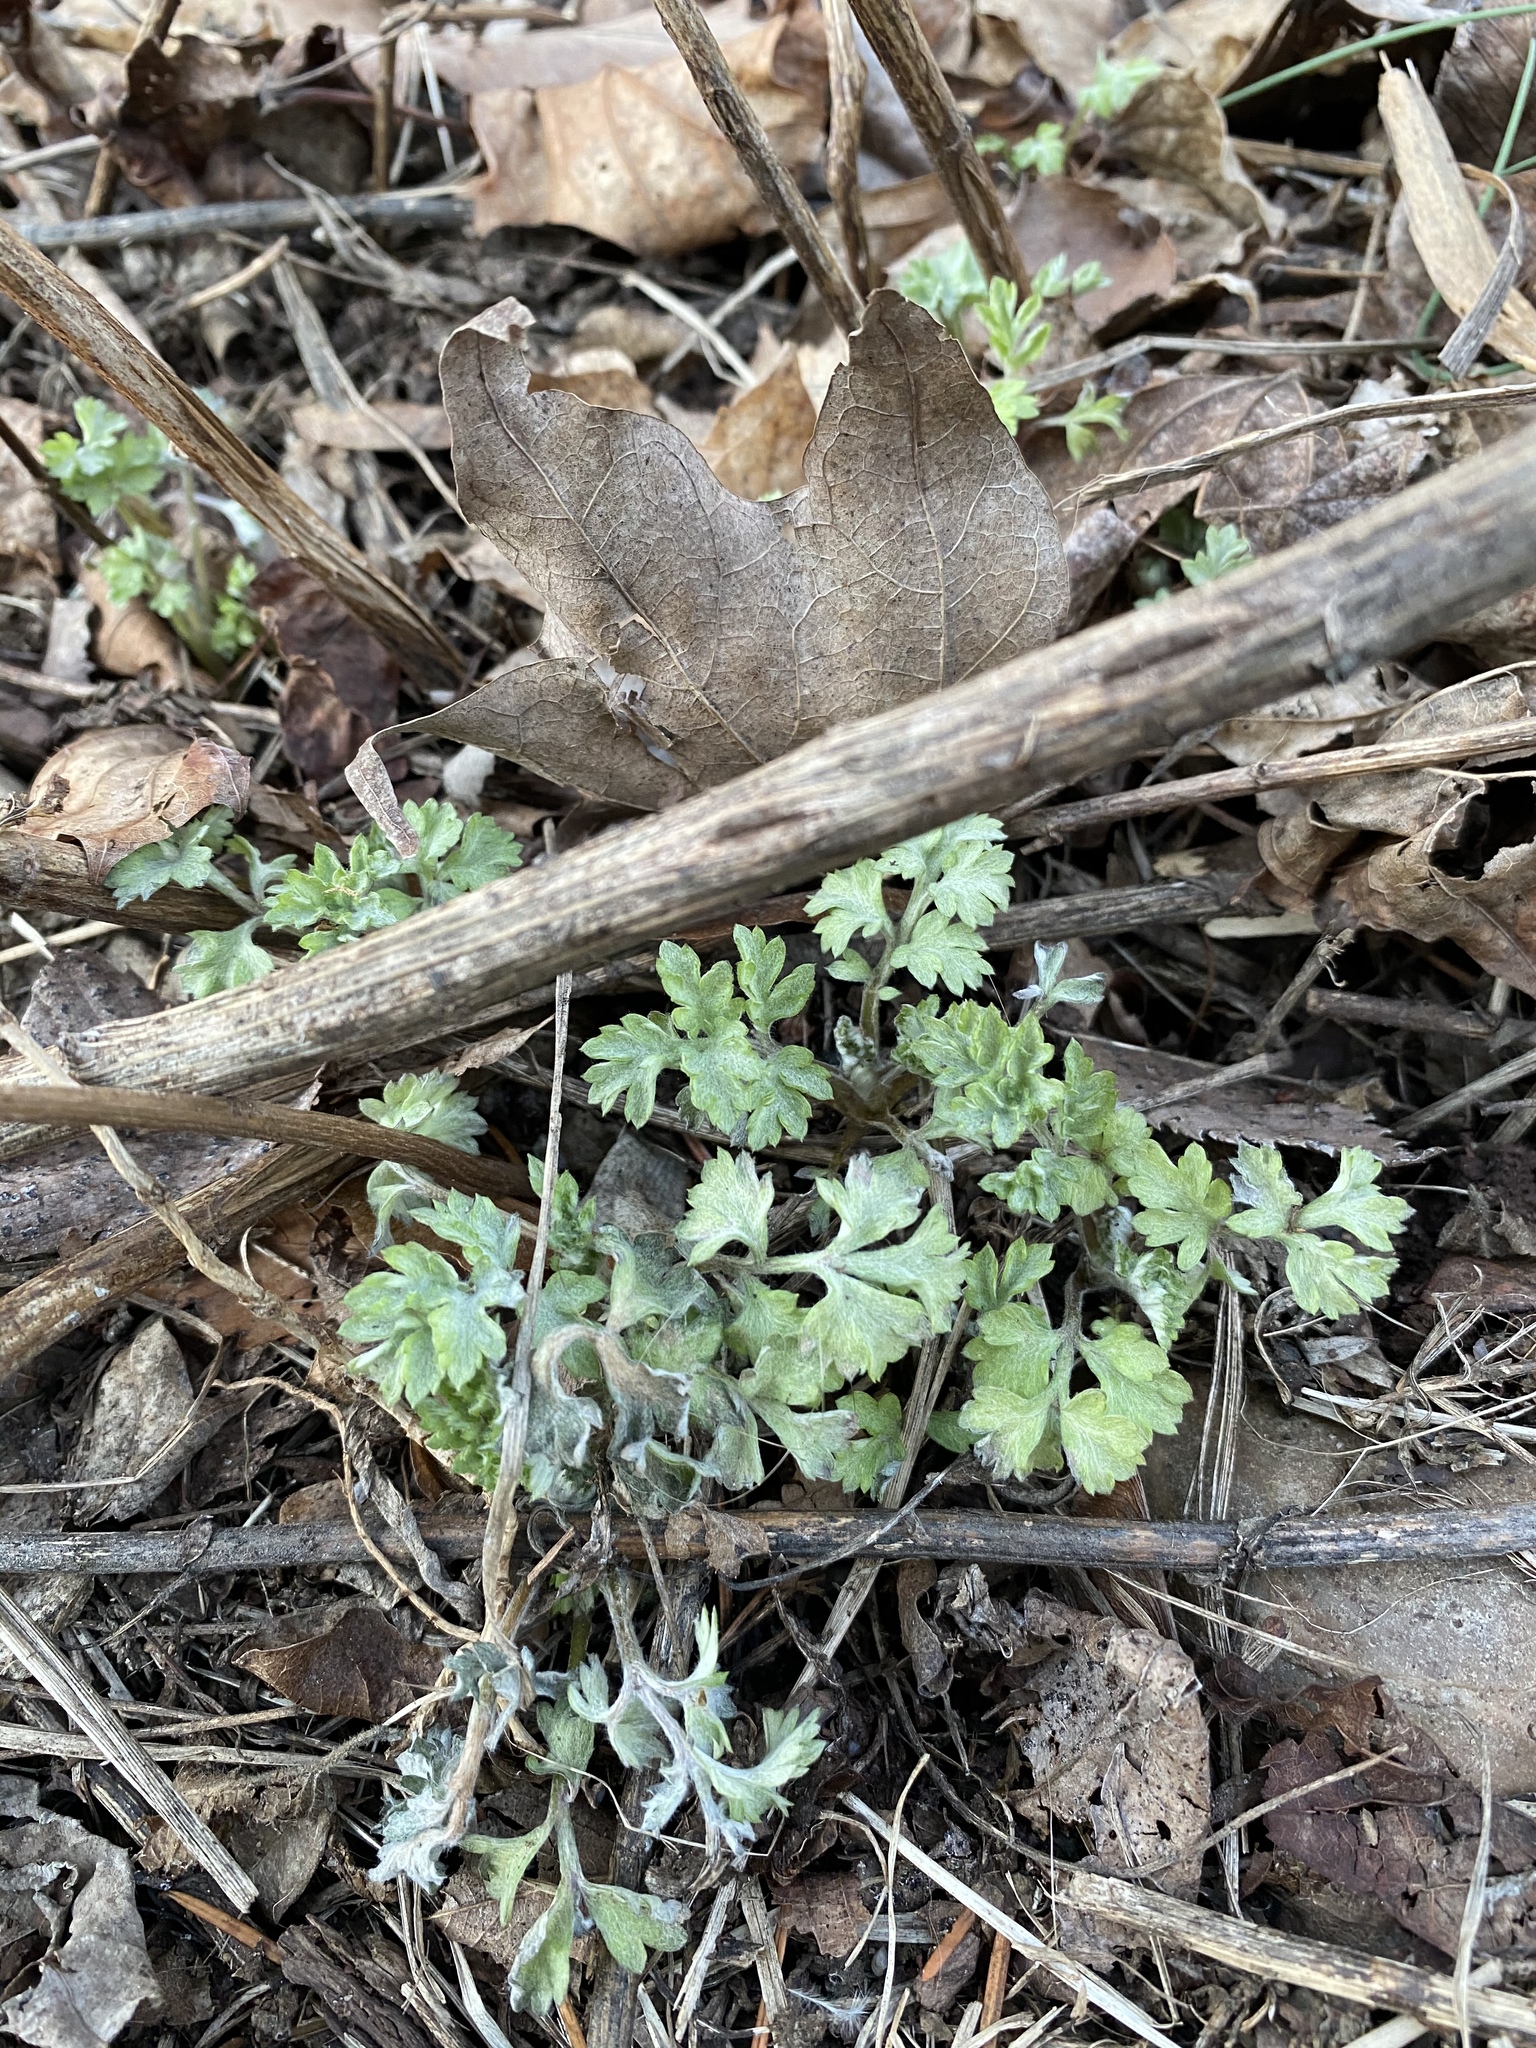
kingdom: Plantae
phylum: Tracheophyta
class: Magnoliopsida
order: Asterales
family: Asteraceae
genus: Artemisia
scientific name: Artemisia vulgaris
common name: Mugwort
